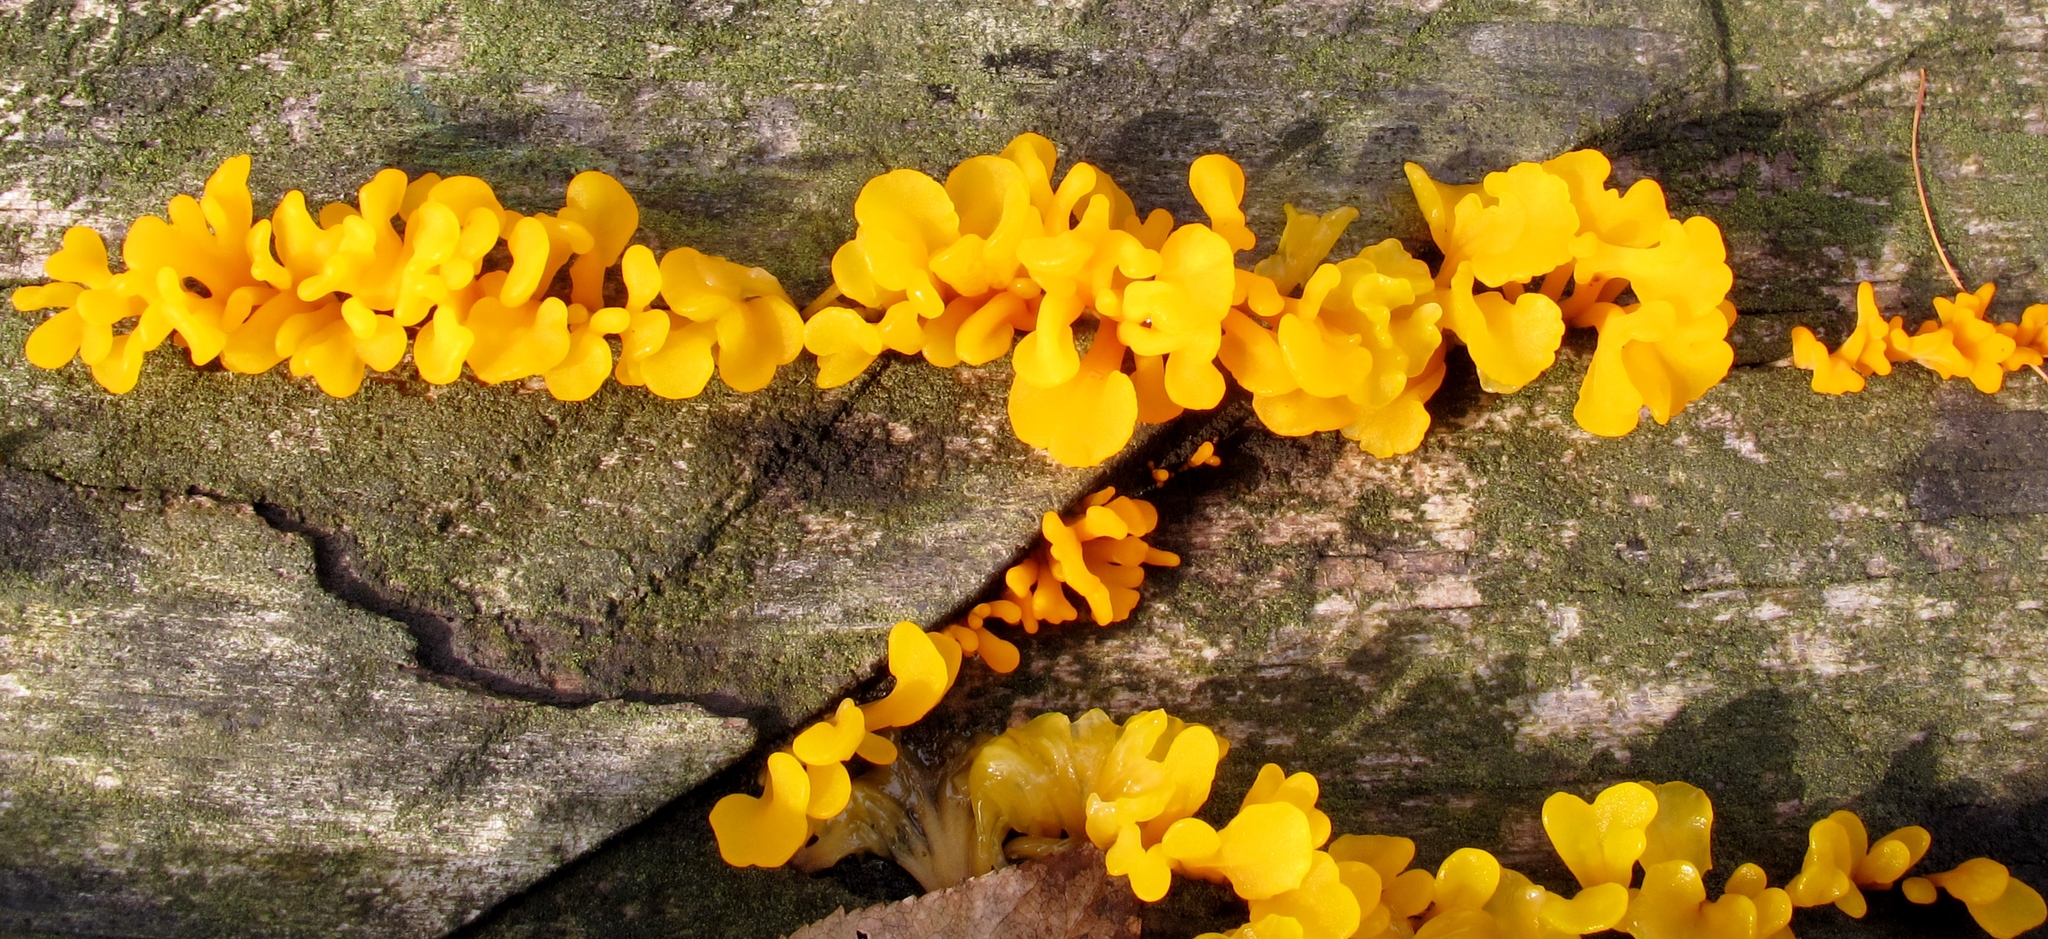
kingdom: Fungi
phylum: Basidiomycota
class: Dacrymycetes
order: Dacrymycetales
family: Dacrymycetaceae
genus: Dacrymyces
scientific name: Dacrymyces spathularius
